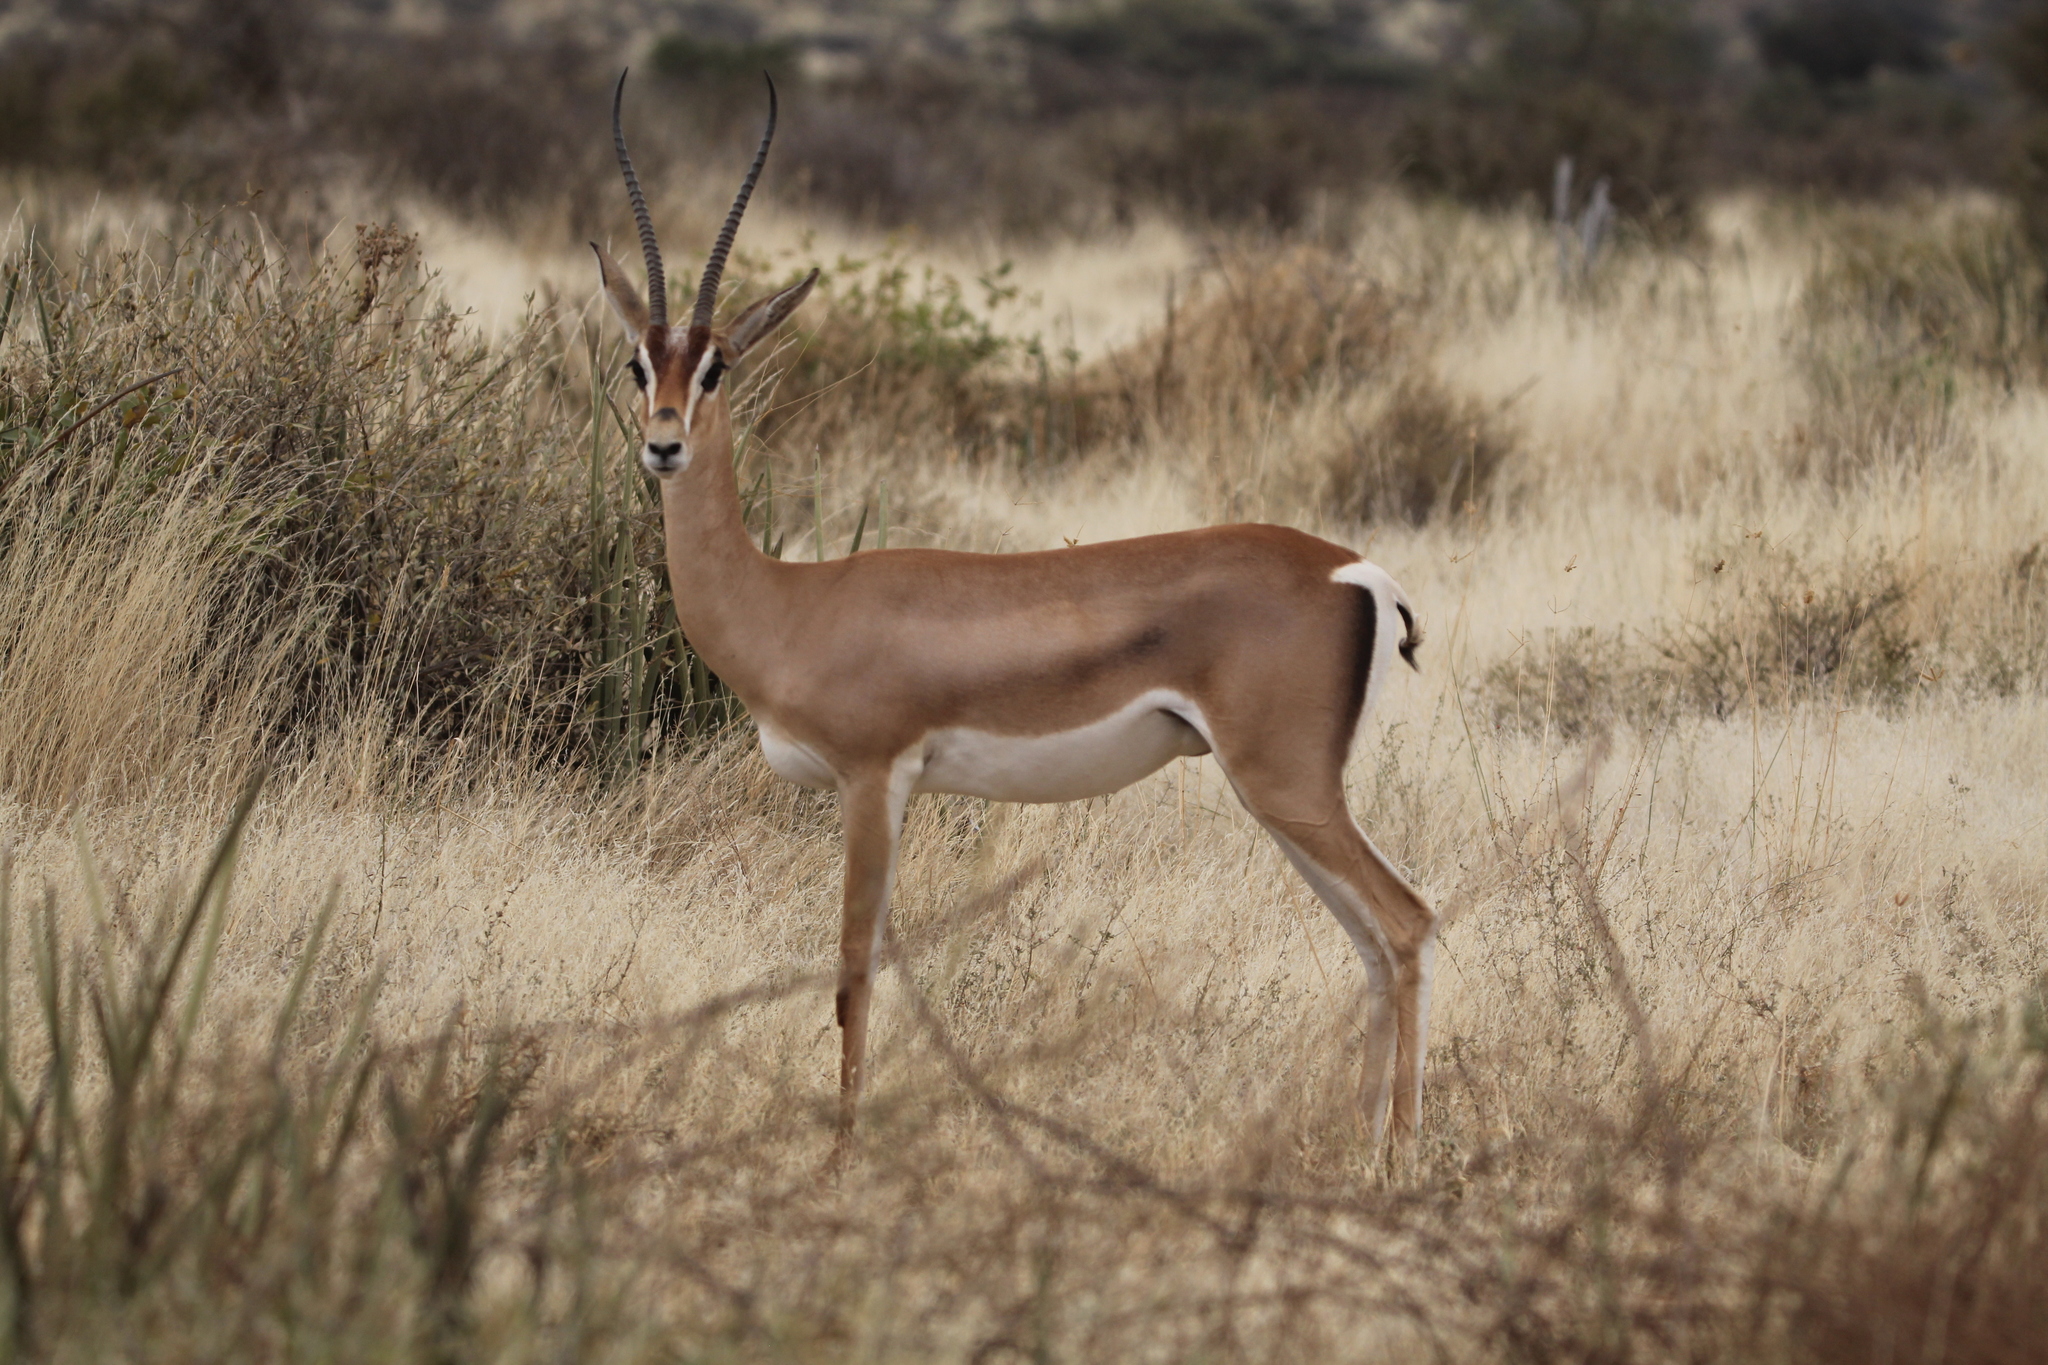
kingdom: Animalia
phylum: Chordata
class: Mammalia
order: Artiodactyla
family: Bovidae
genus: Nanger
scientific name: Nanger granti
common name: Grant's gazelle
